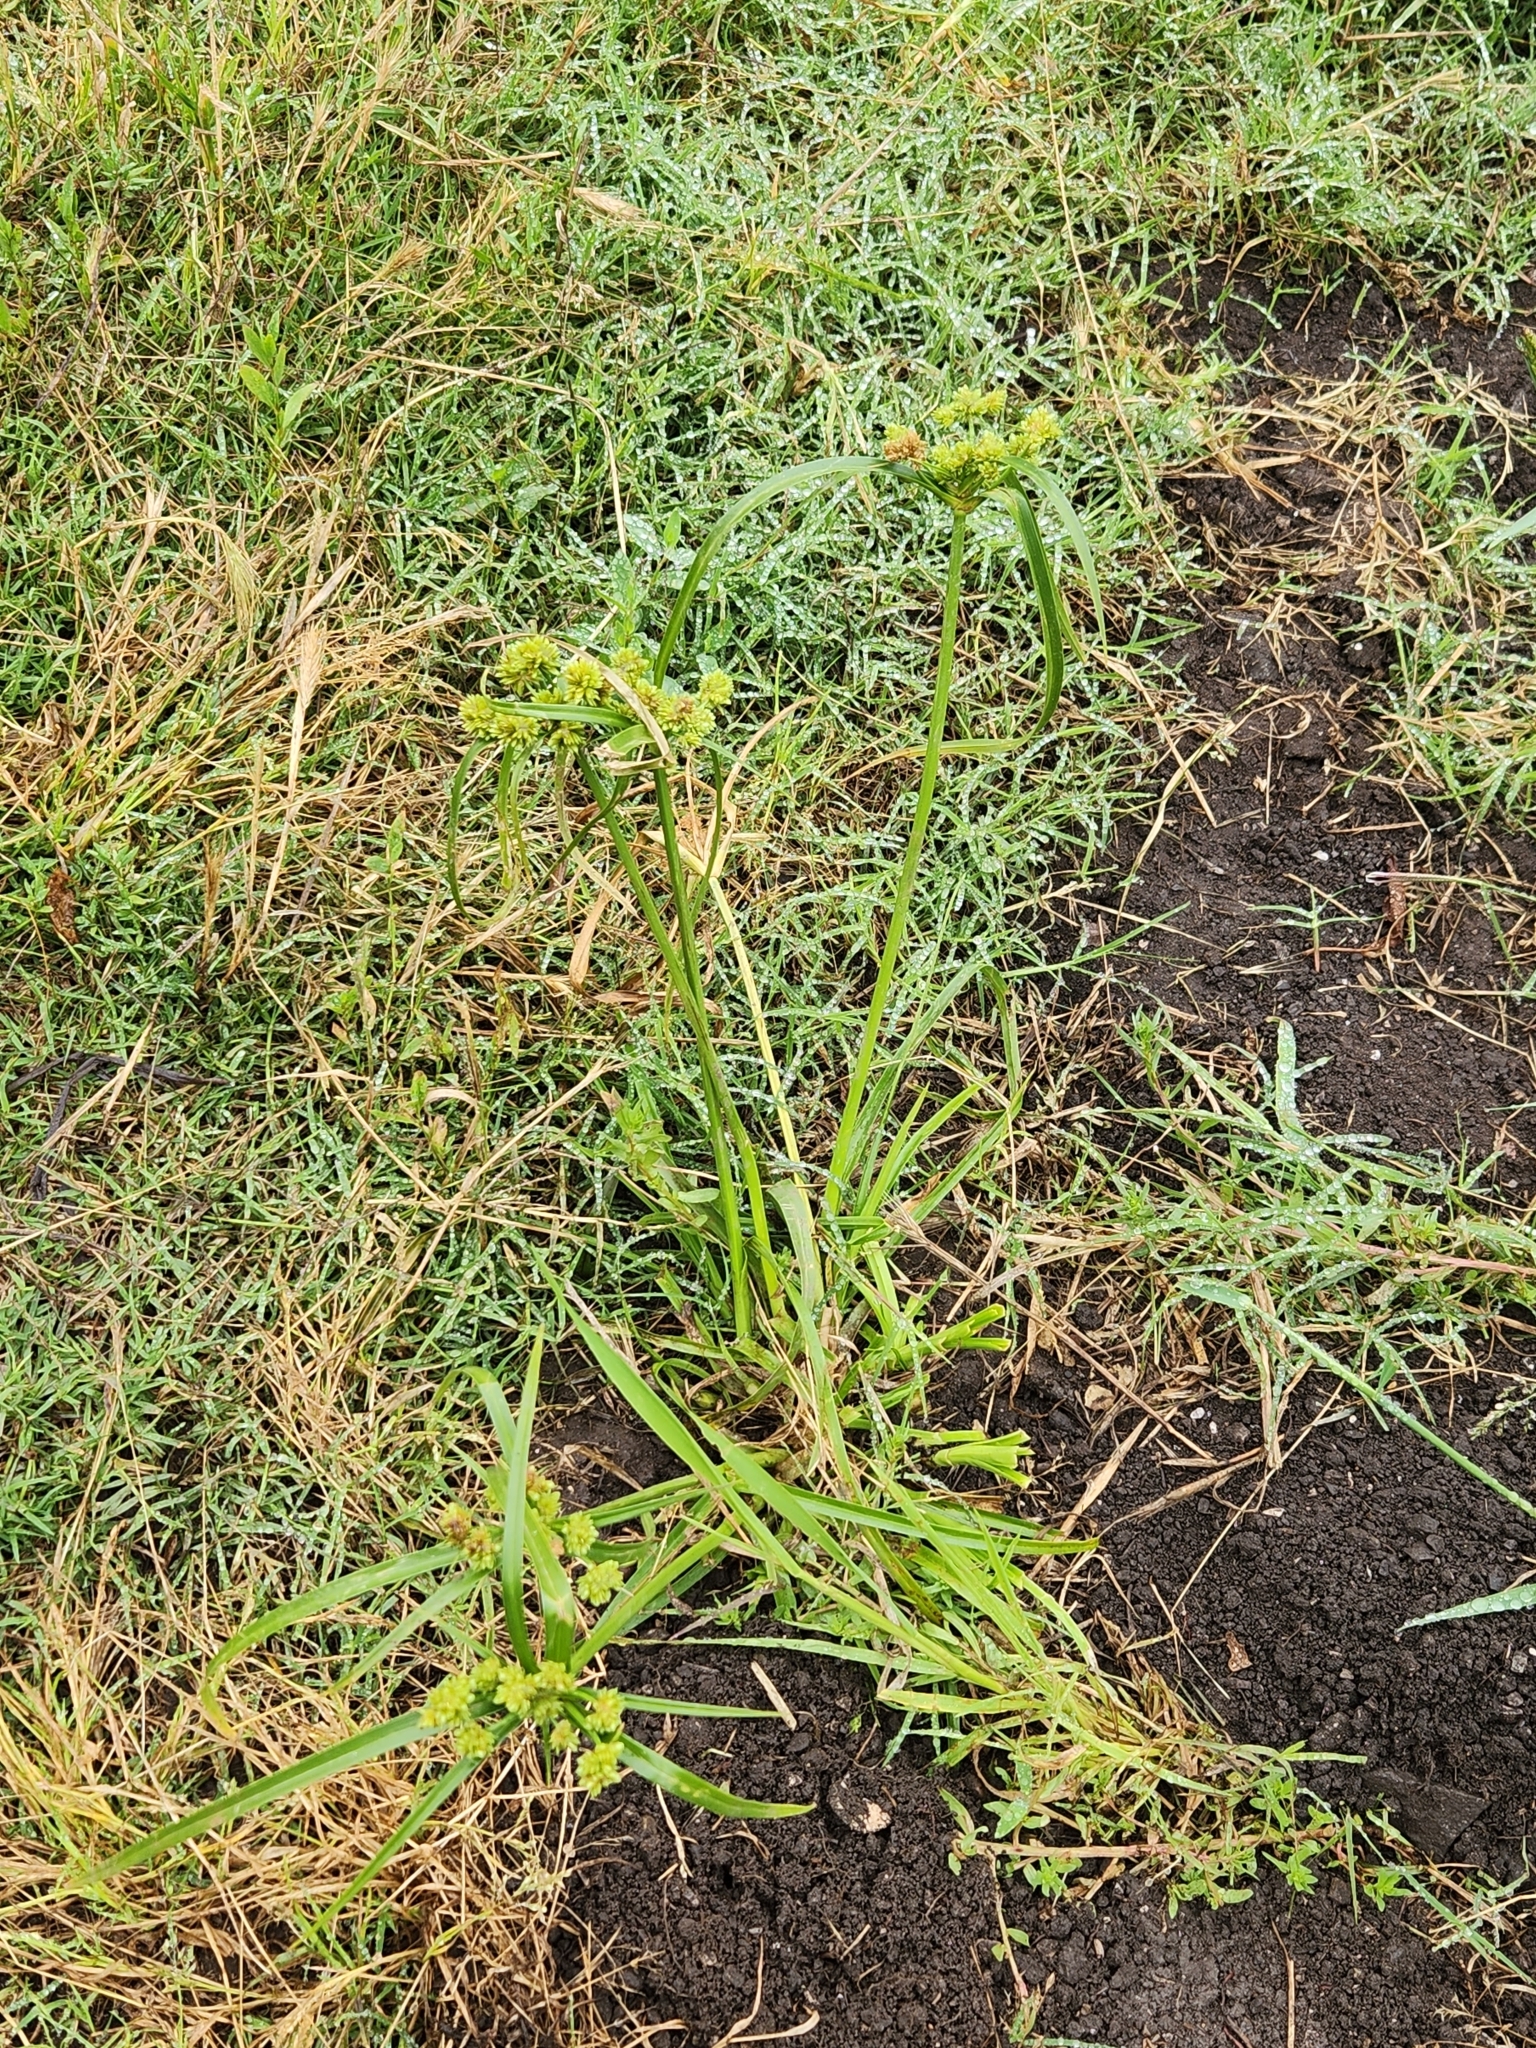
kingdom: Plantae
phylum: Tracheophyta
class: Liliopsida
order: Poales
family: Cyperaceae
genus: Cyperus
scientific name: Cyperus eragrostis
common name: Tall flatsedge
